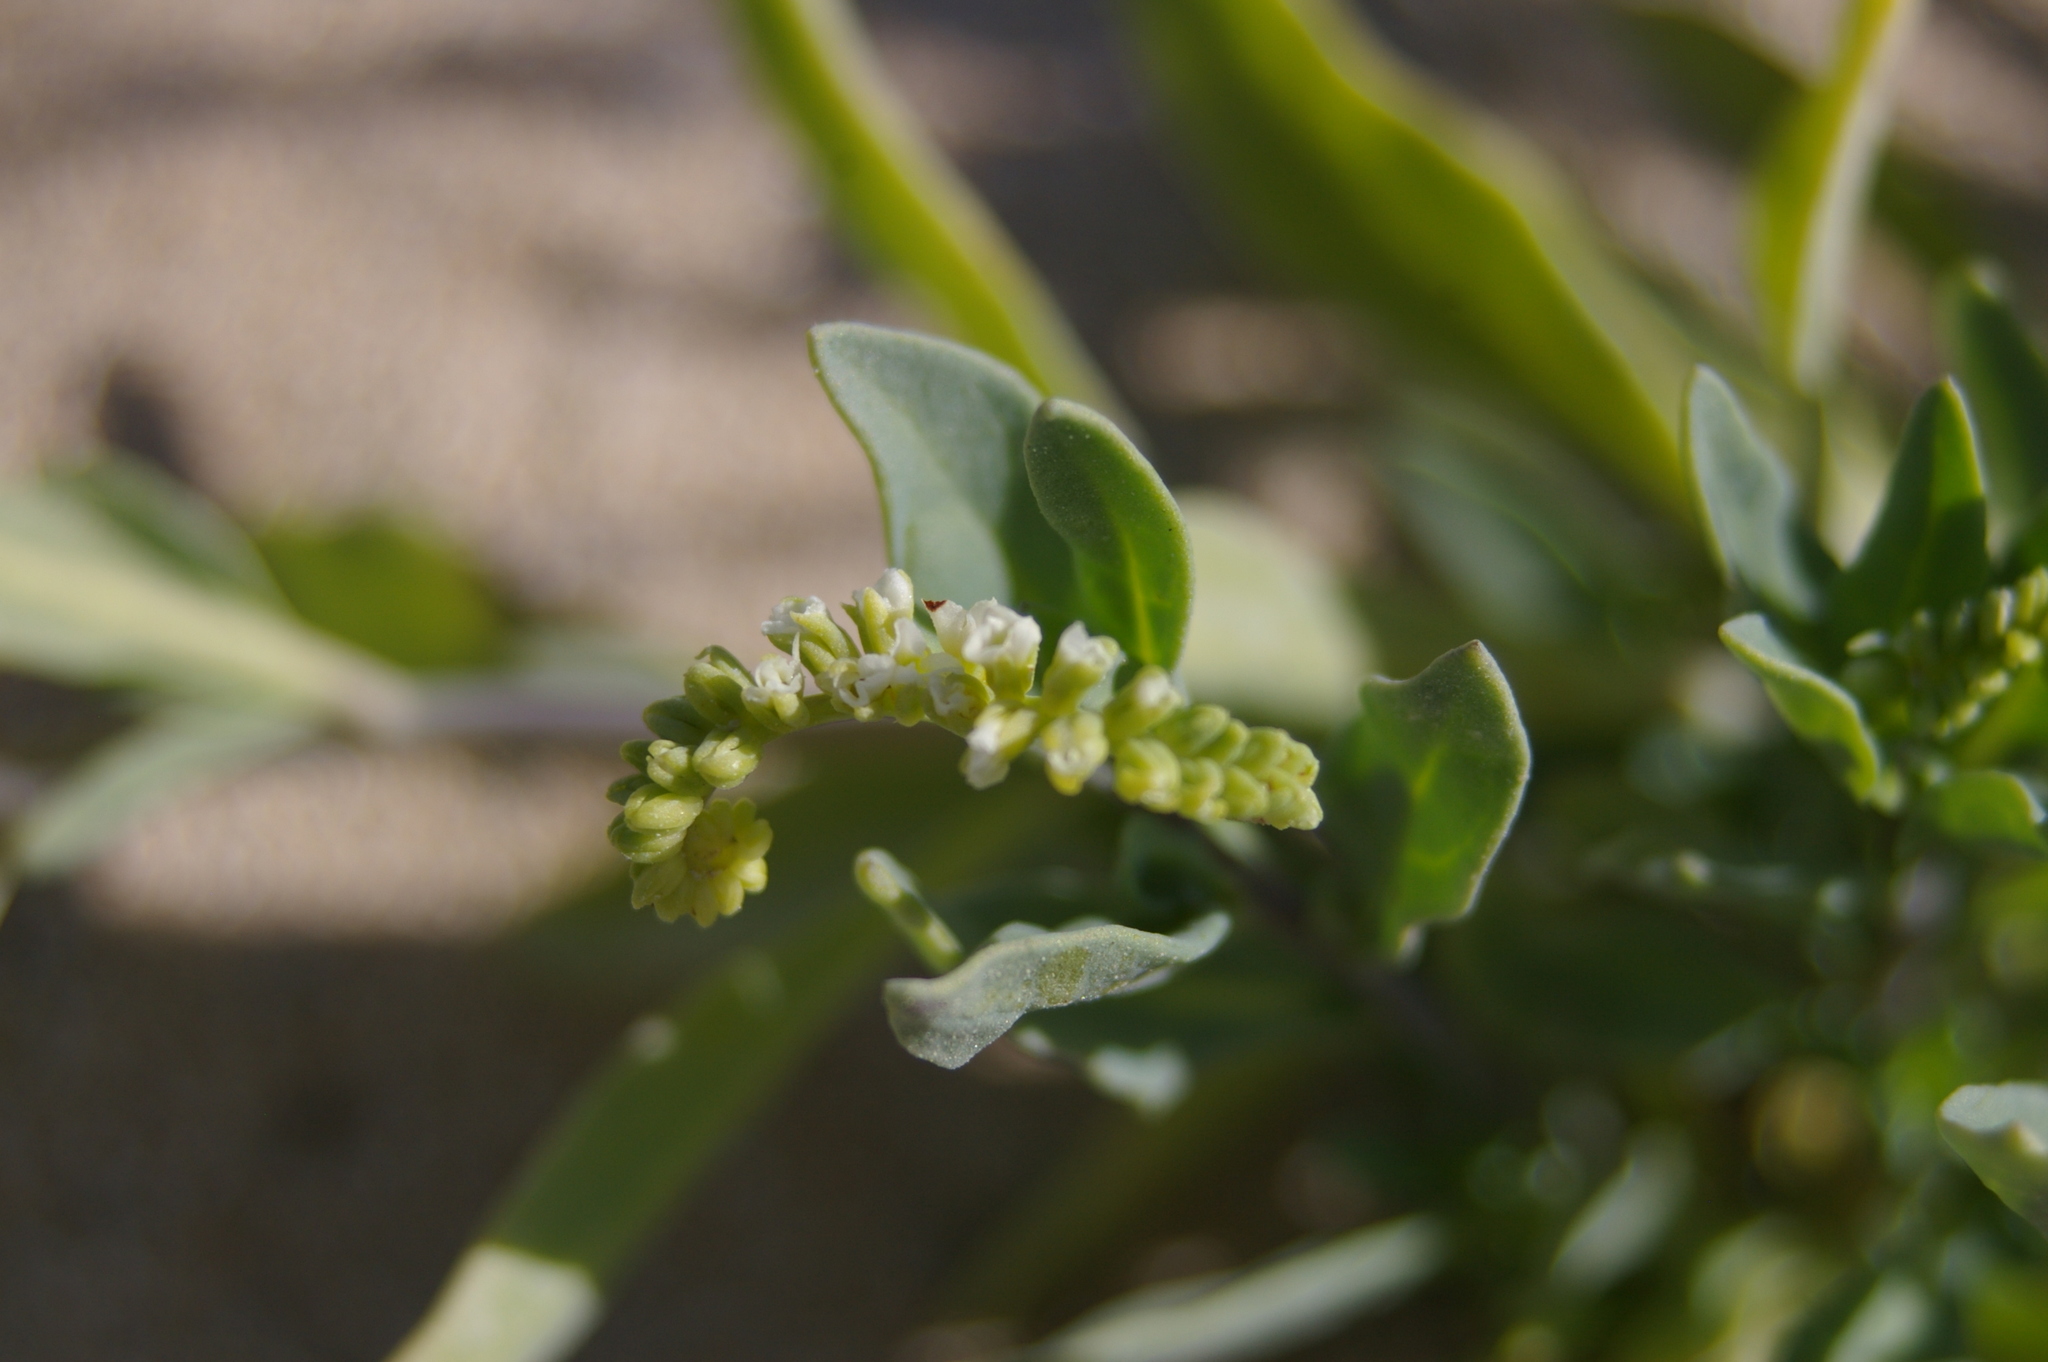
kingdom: Plantae
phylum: Tracheophyta
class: Magnoliopsida
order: Boraginales
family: Heliotropiaceae
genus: Heliotropium
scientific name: Heliotropium curassavicum
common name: Seaside heliotrope
